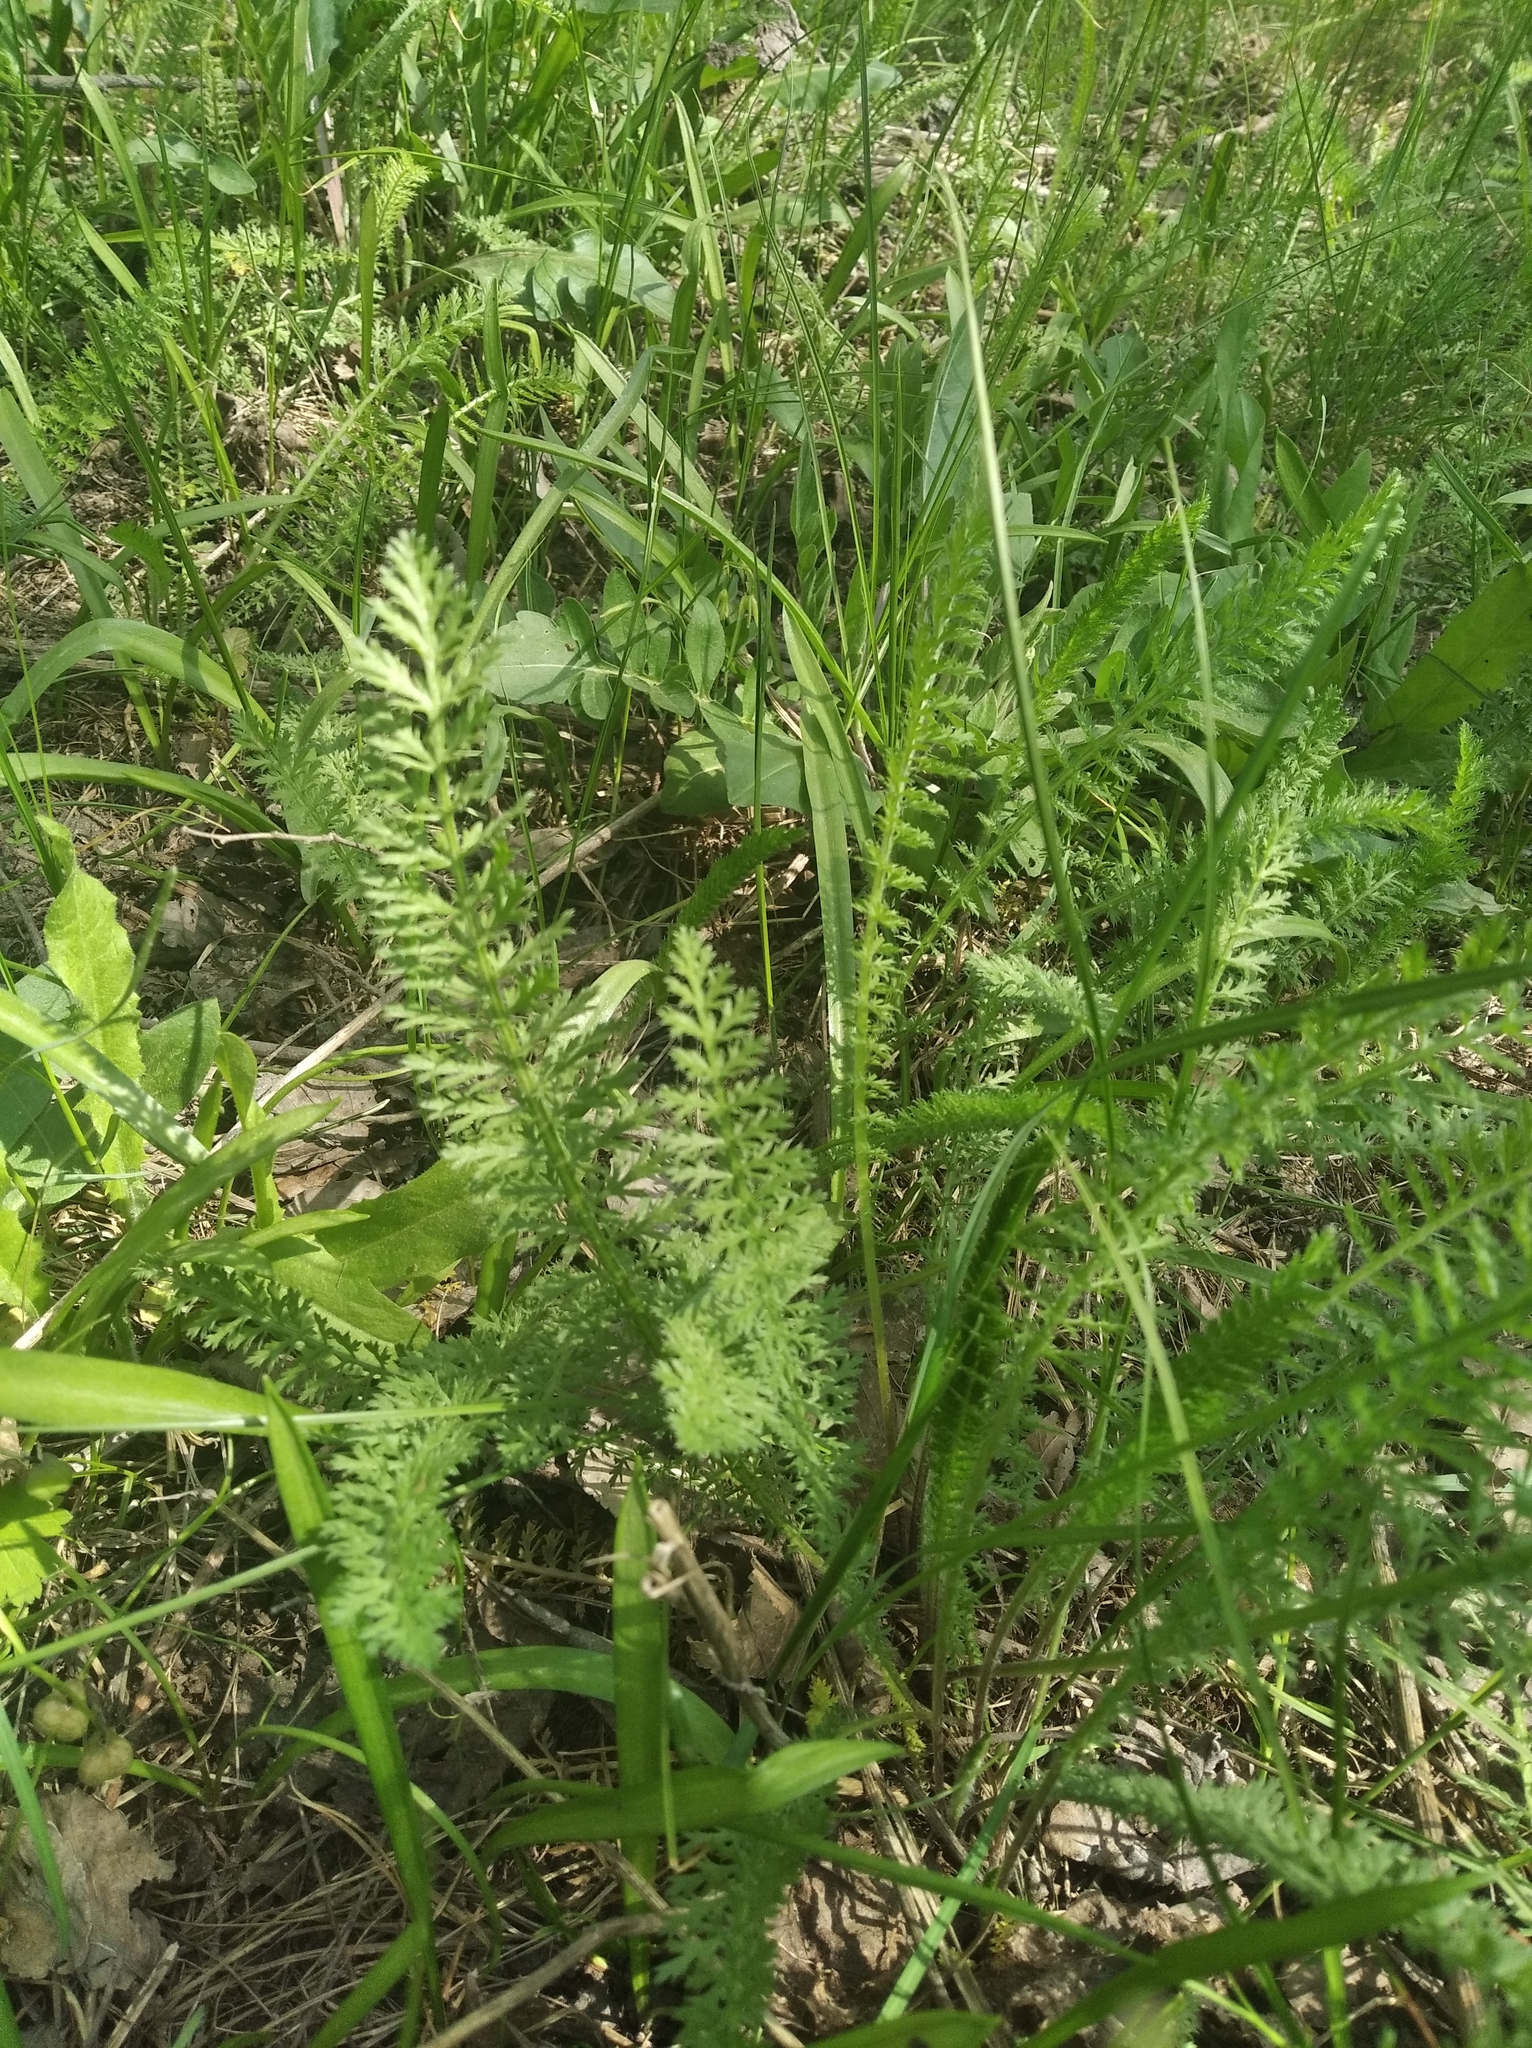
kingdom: Plantae
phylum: Tracheophyta
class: Magnoliopsida
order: Asterales
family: Asteraceae
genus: Achillea
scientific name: Achillea millefolium
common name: Yarrow
